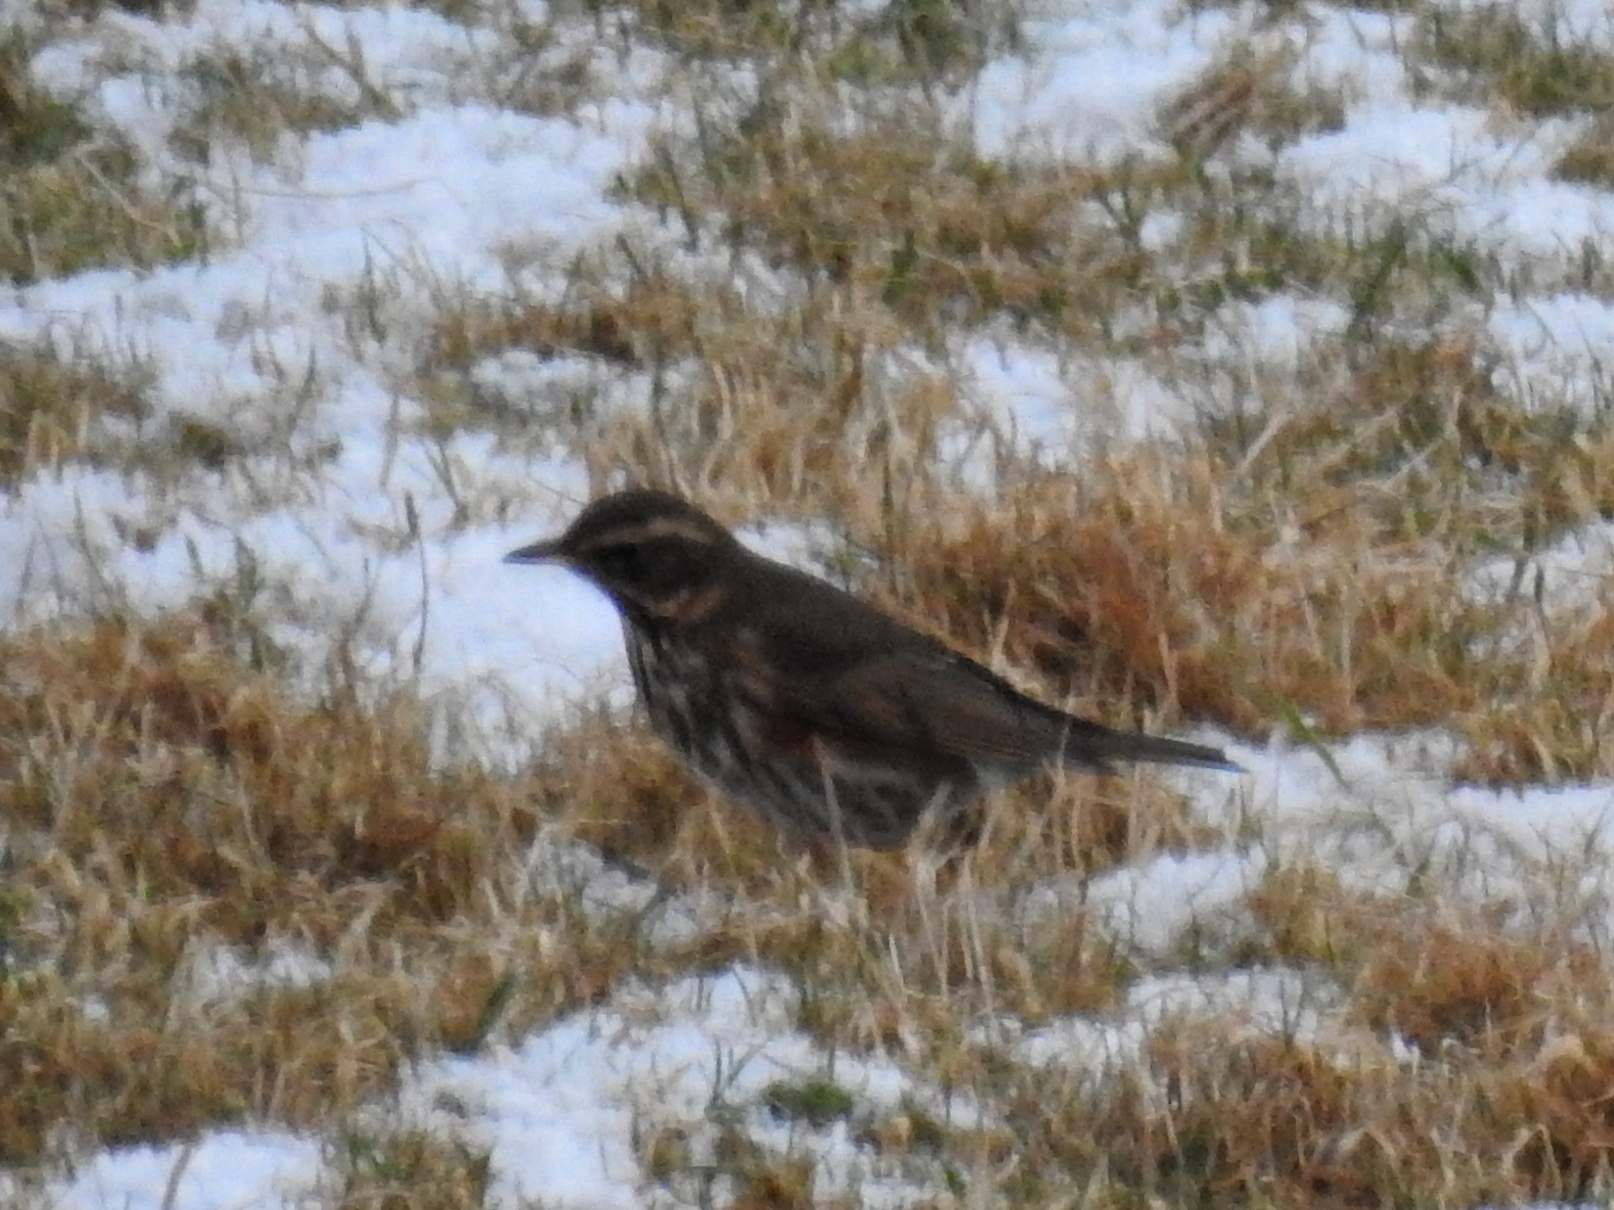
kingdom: Animalia
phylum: Chordata
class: Aves
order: Passeriformes
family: Turdidae
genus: Turdus
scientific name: Turdus iliacus
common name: Redwing
